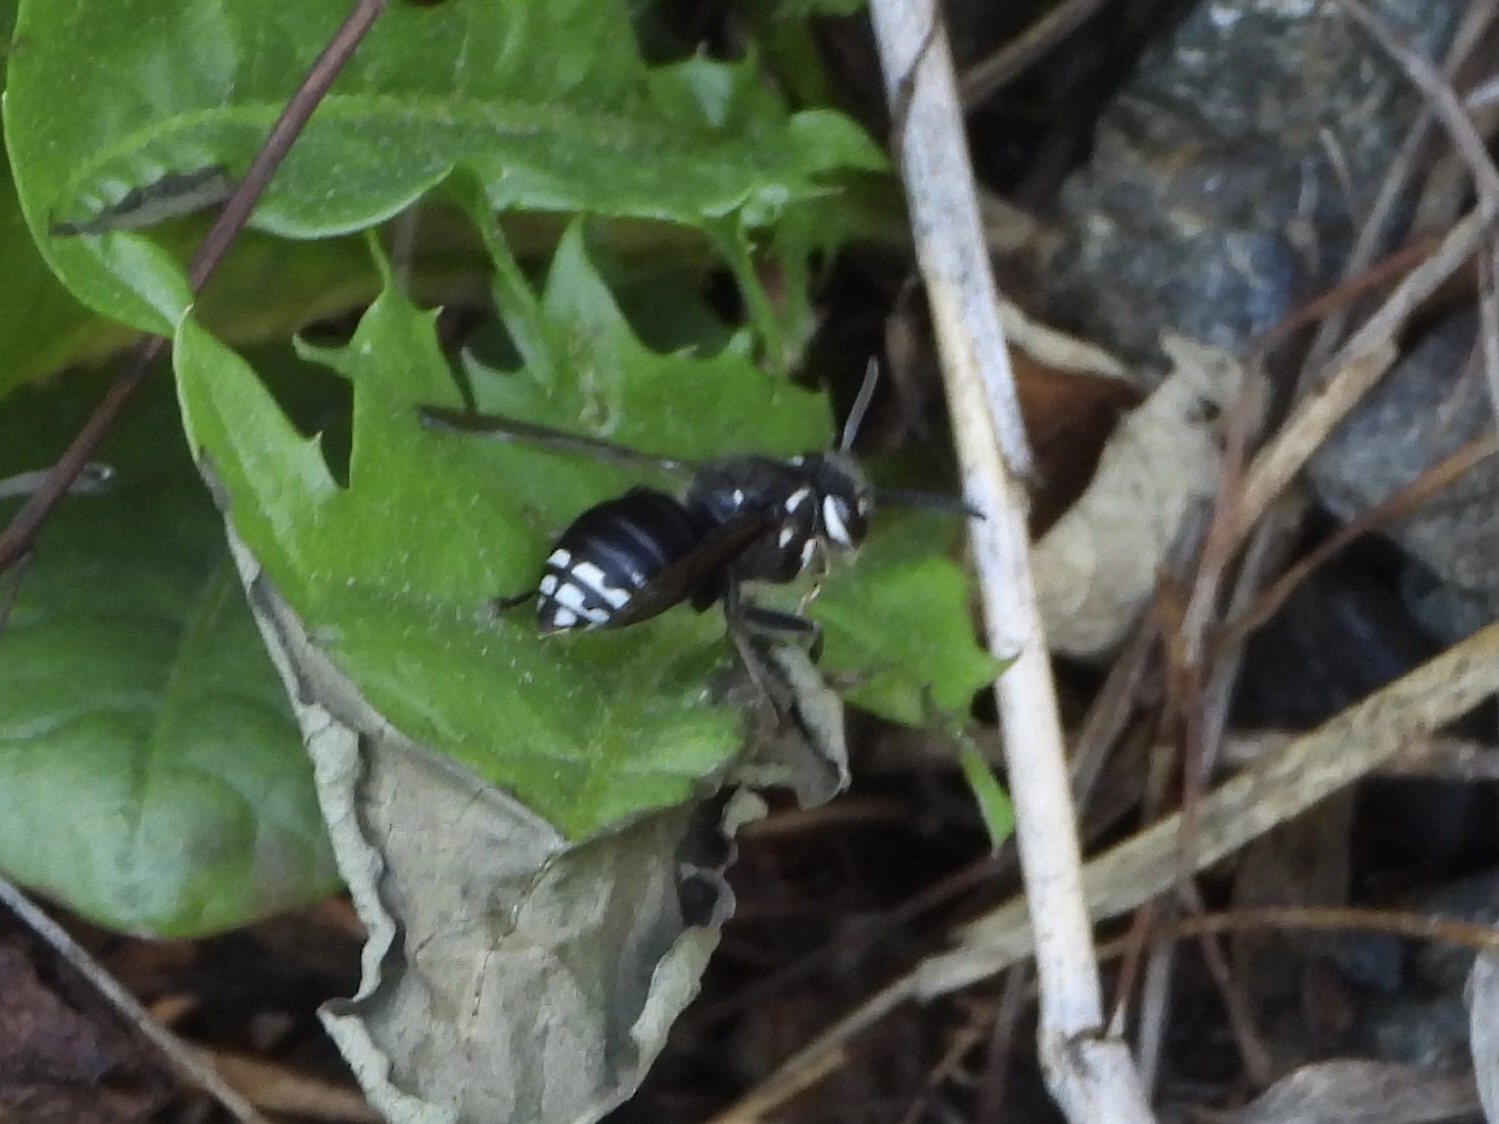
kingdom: Animalia
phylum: Arthropoda
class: Insecta
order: Hymenoptera
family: Vespidae
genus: Dolichovespula
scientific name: Dolichovespula maculata
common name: Bald-faced hornet
